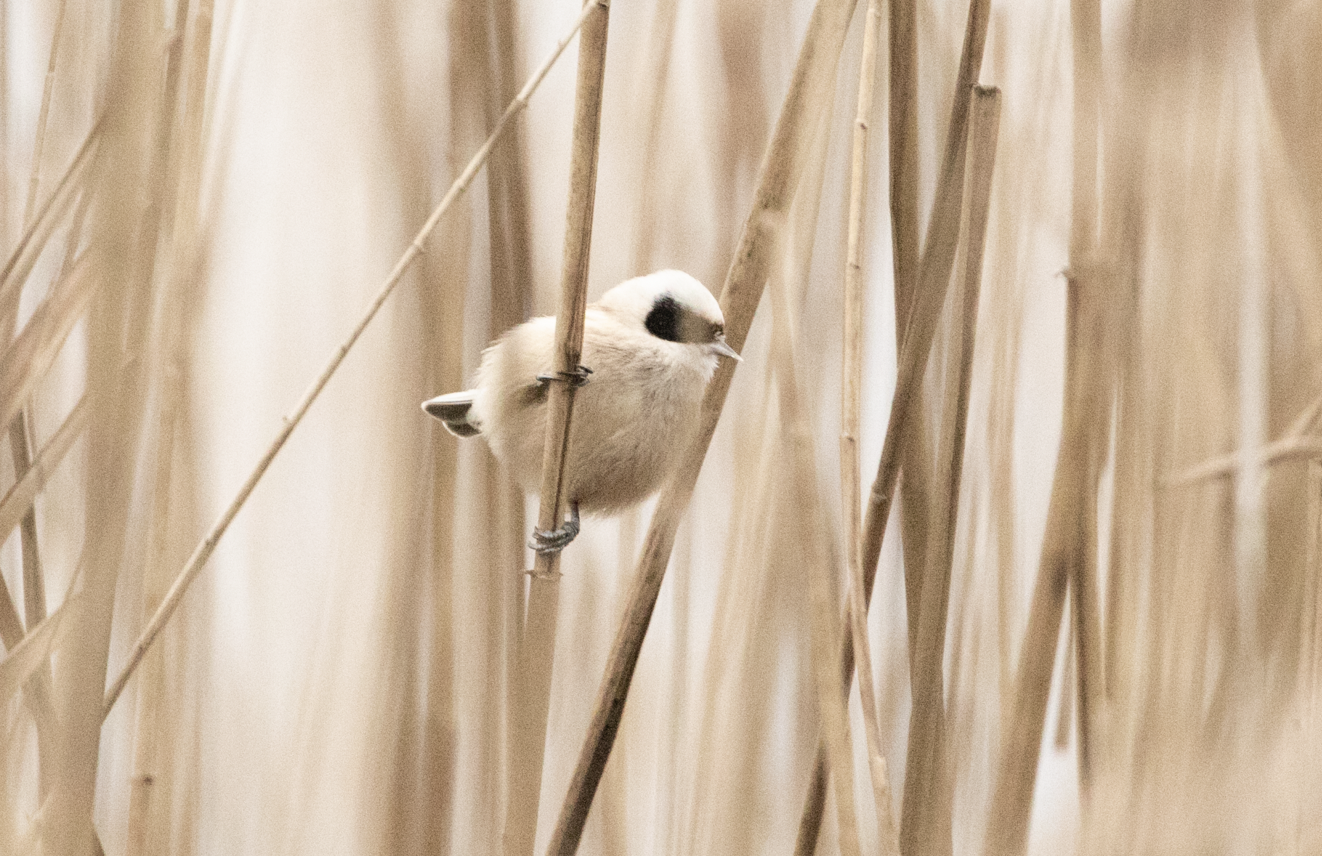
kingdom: Animalia
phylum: Chordata
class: Aves
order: Passeriformes
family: Remizidae
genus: Remiz
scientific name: Remiz pendulinus
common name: Eurasian penduline tit
